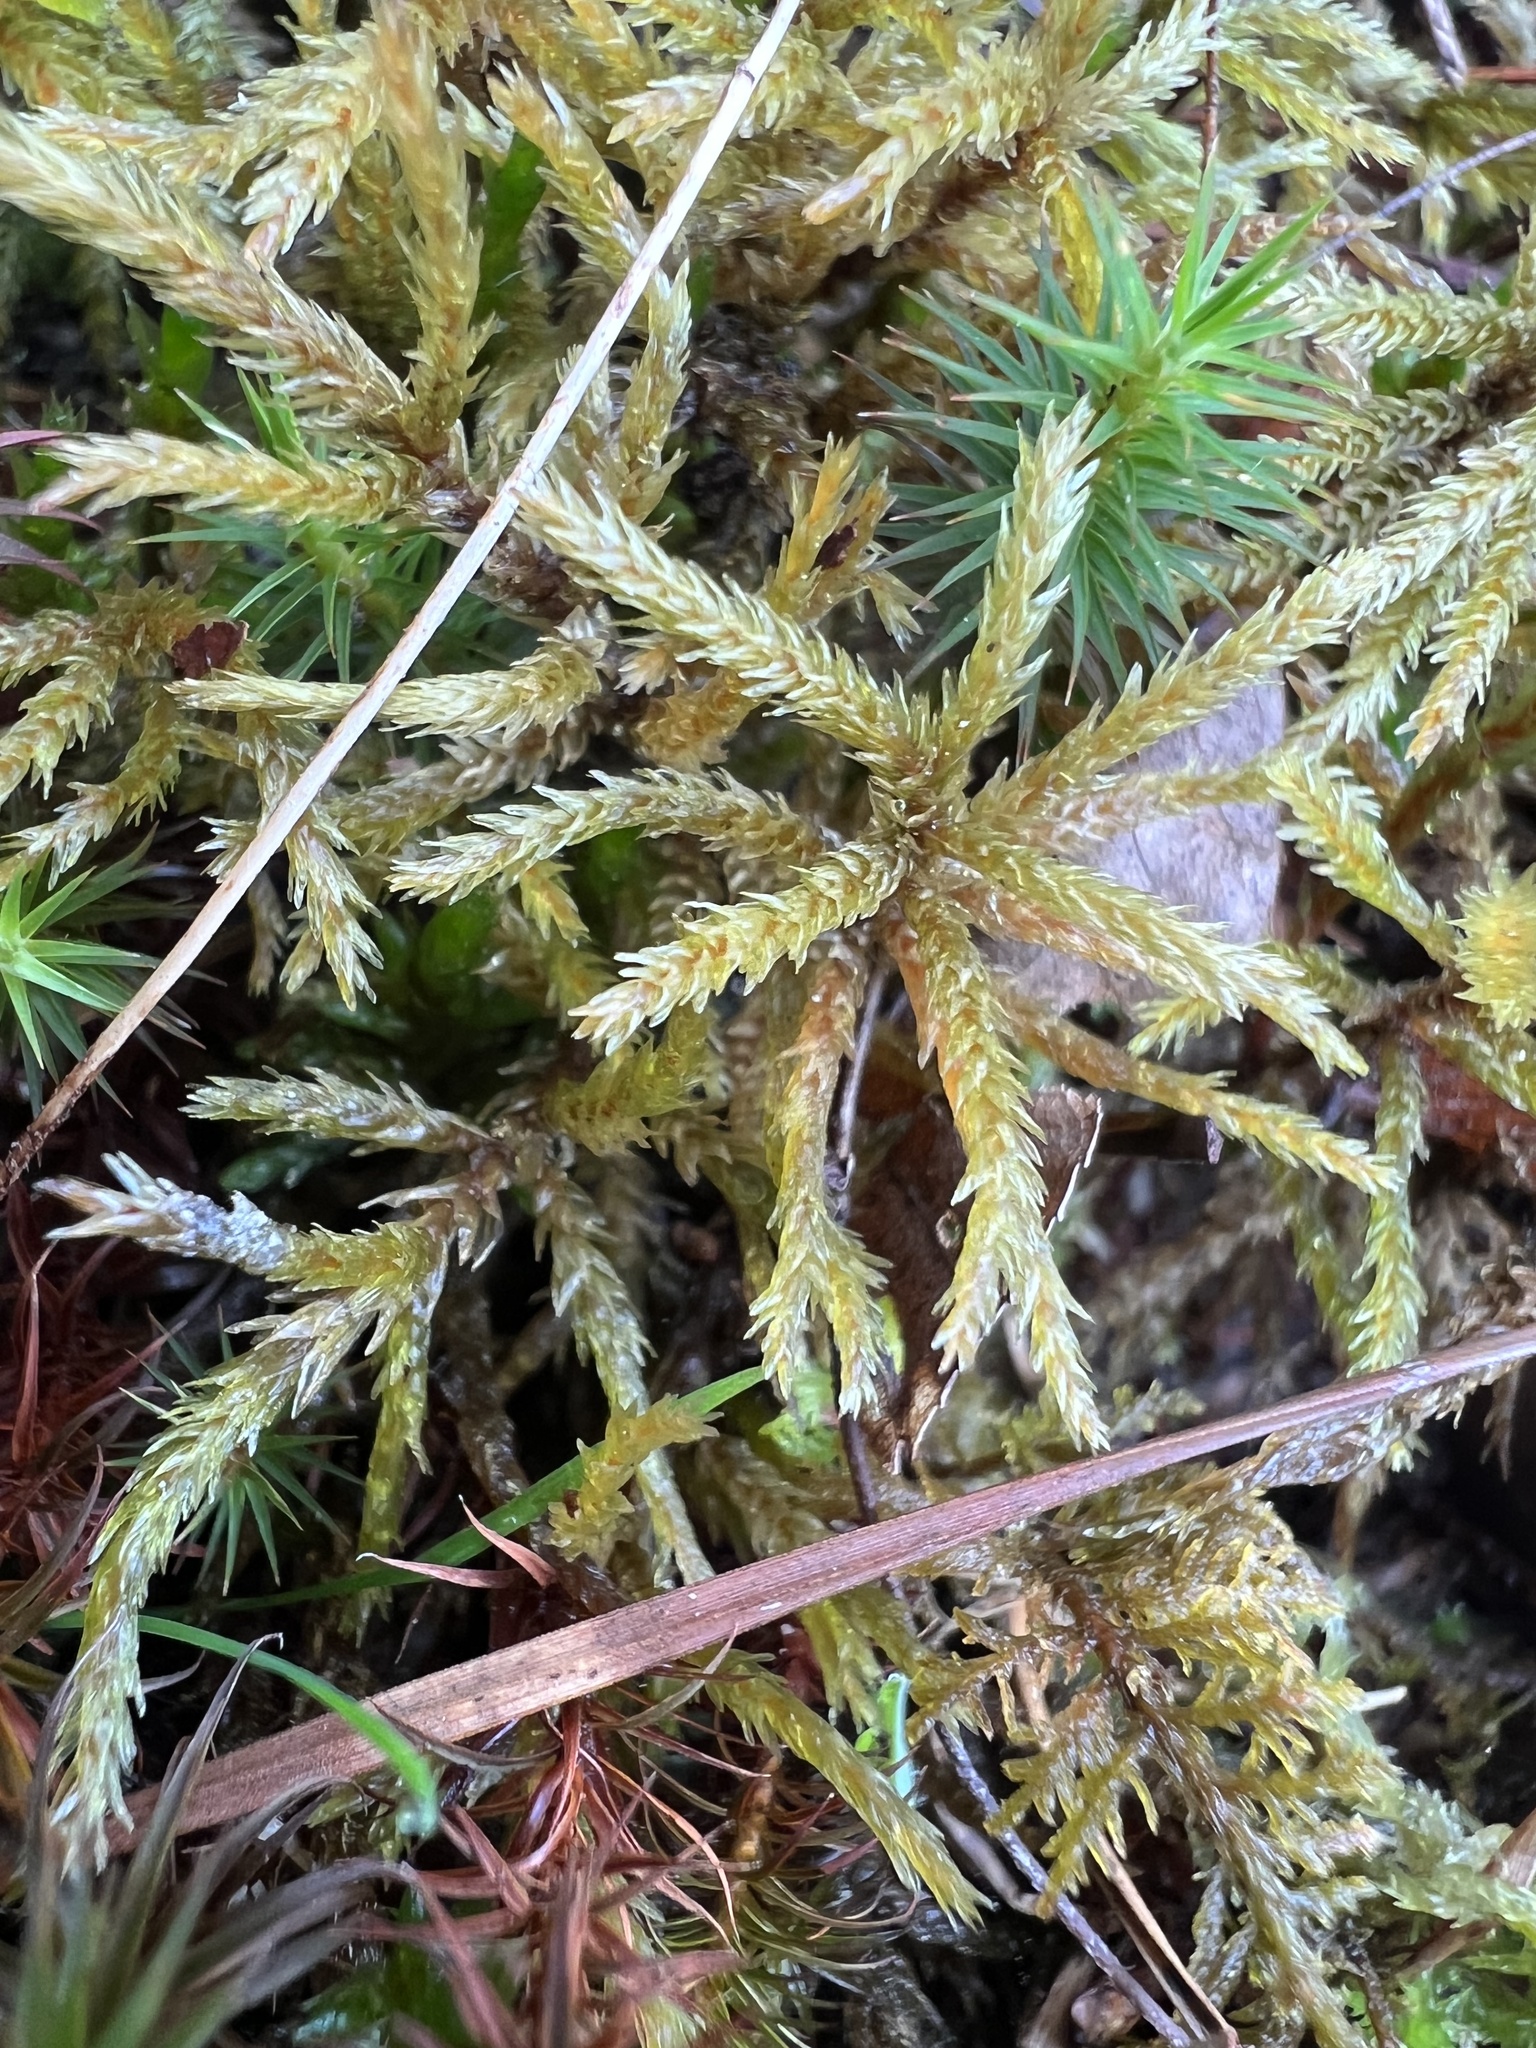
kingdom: Plantae
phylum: Bryophyta
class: Bryopsida
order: Hypnales
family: Climaciaceae
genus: Climacium
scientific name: Climacium americanum
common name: American tree moss
